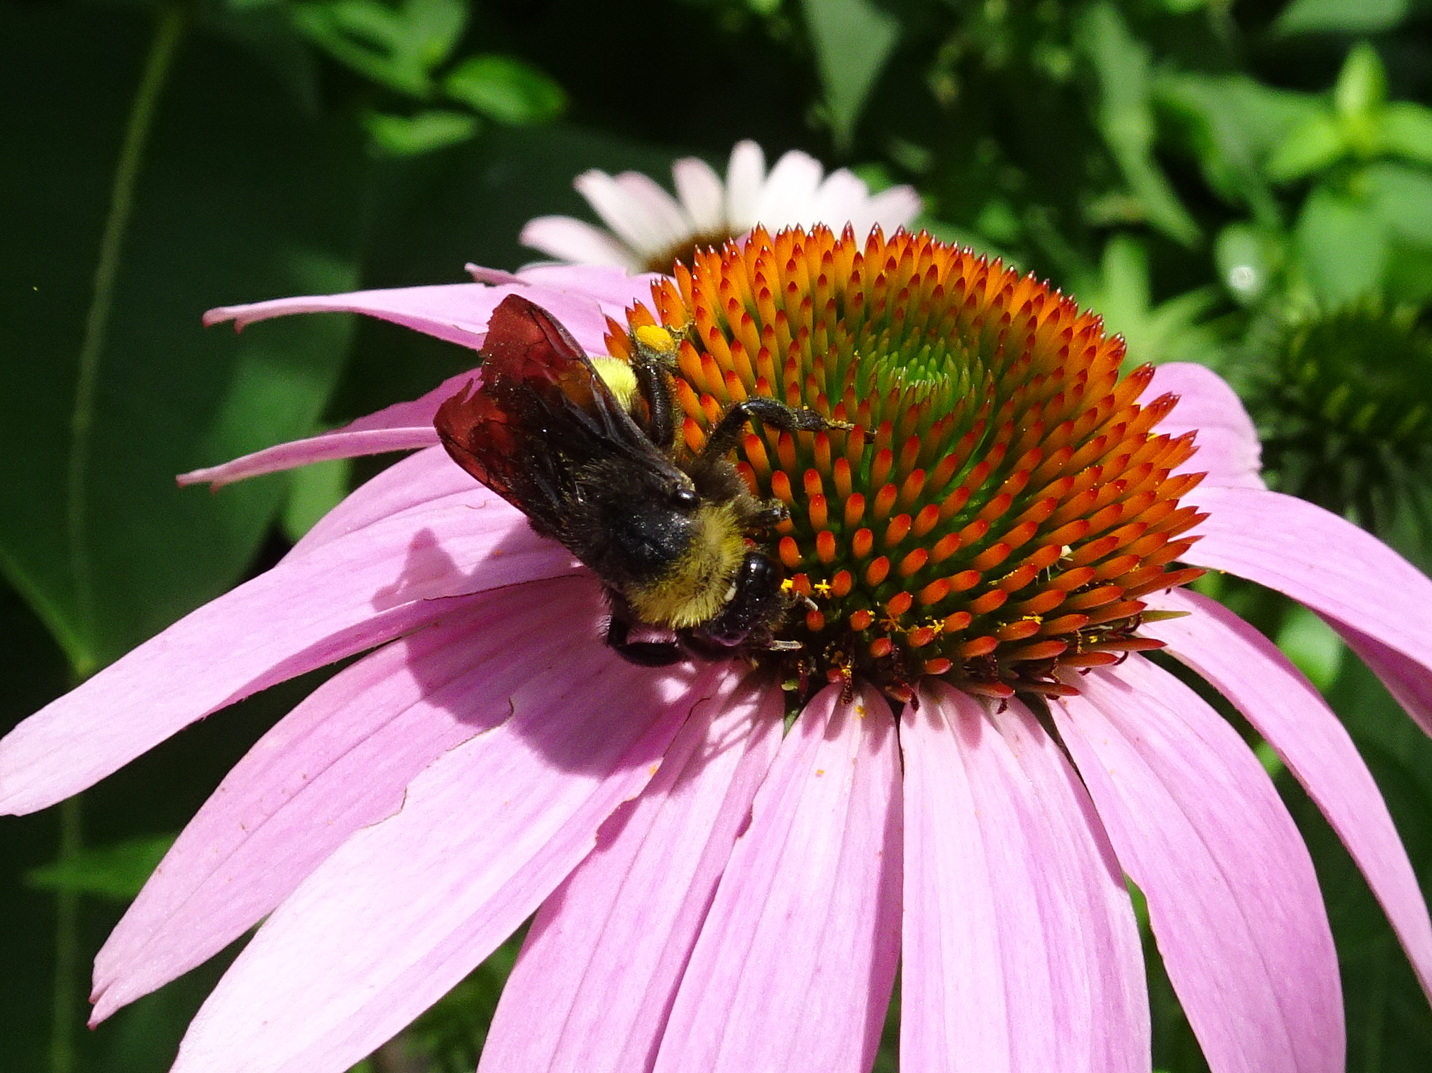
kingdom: Animalia
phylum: Arthropoda
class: Insecta
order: Hymenoptera
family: Apidae
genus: Bombus
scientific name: Bombus pensylvanicus
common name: Bumble bee
